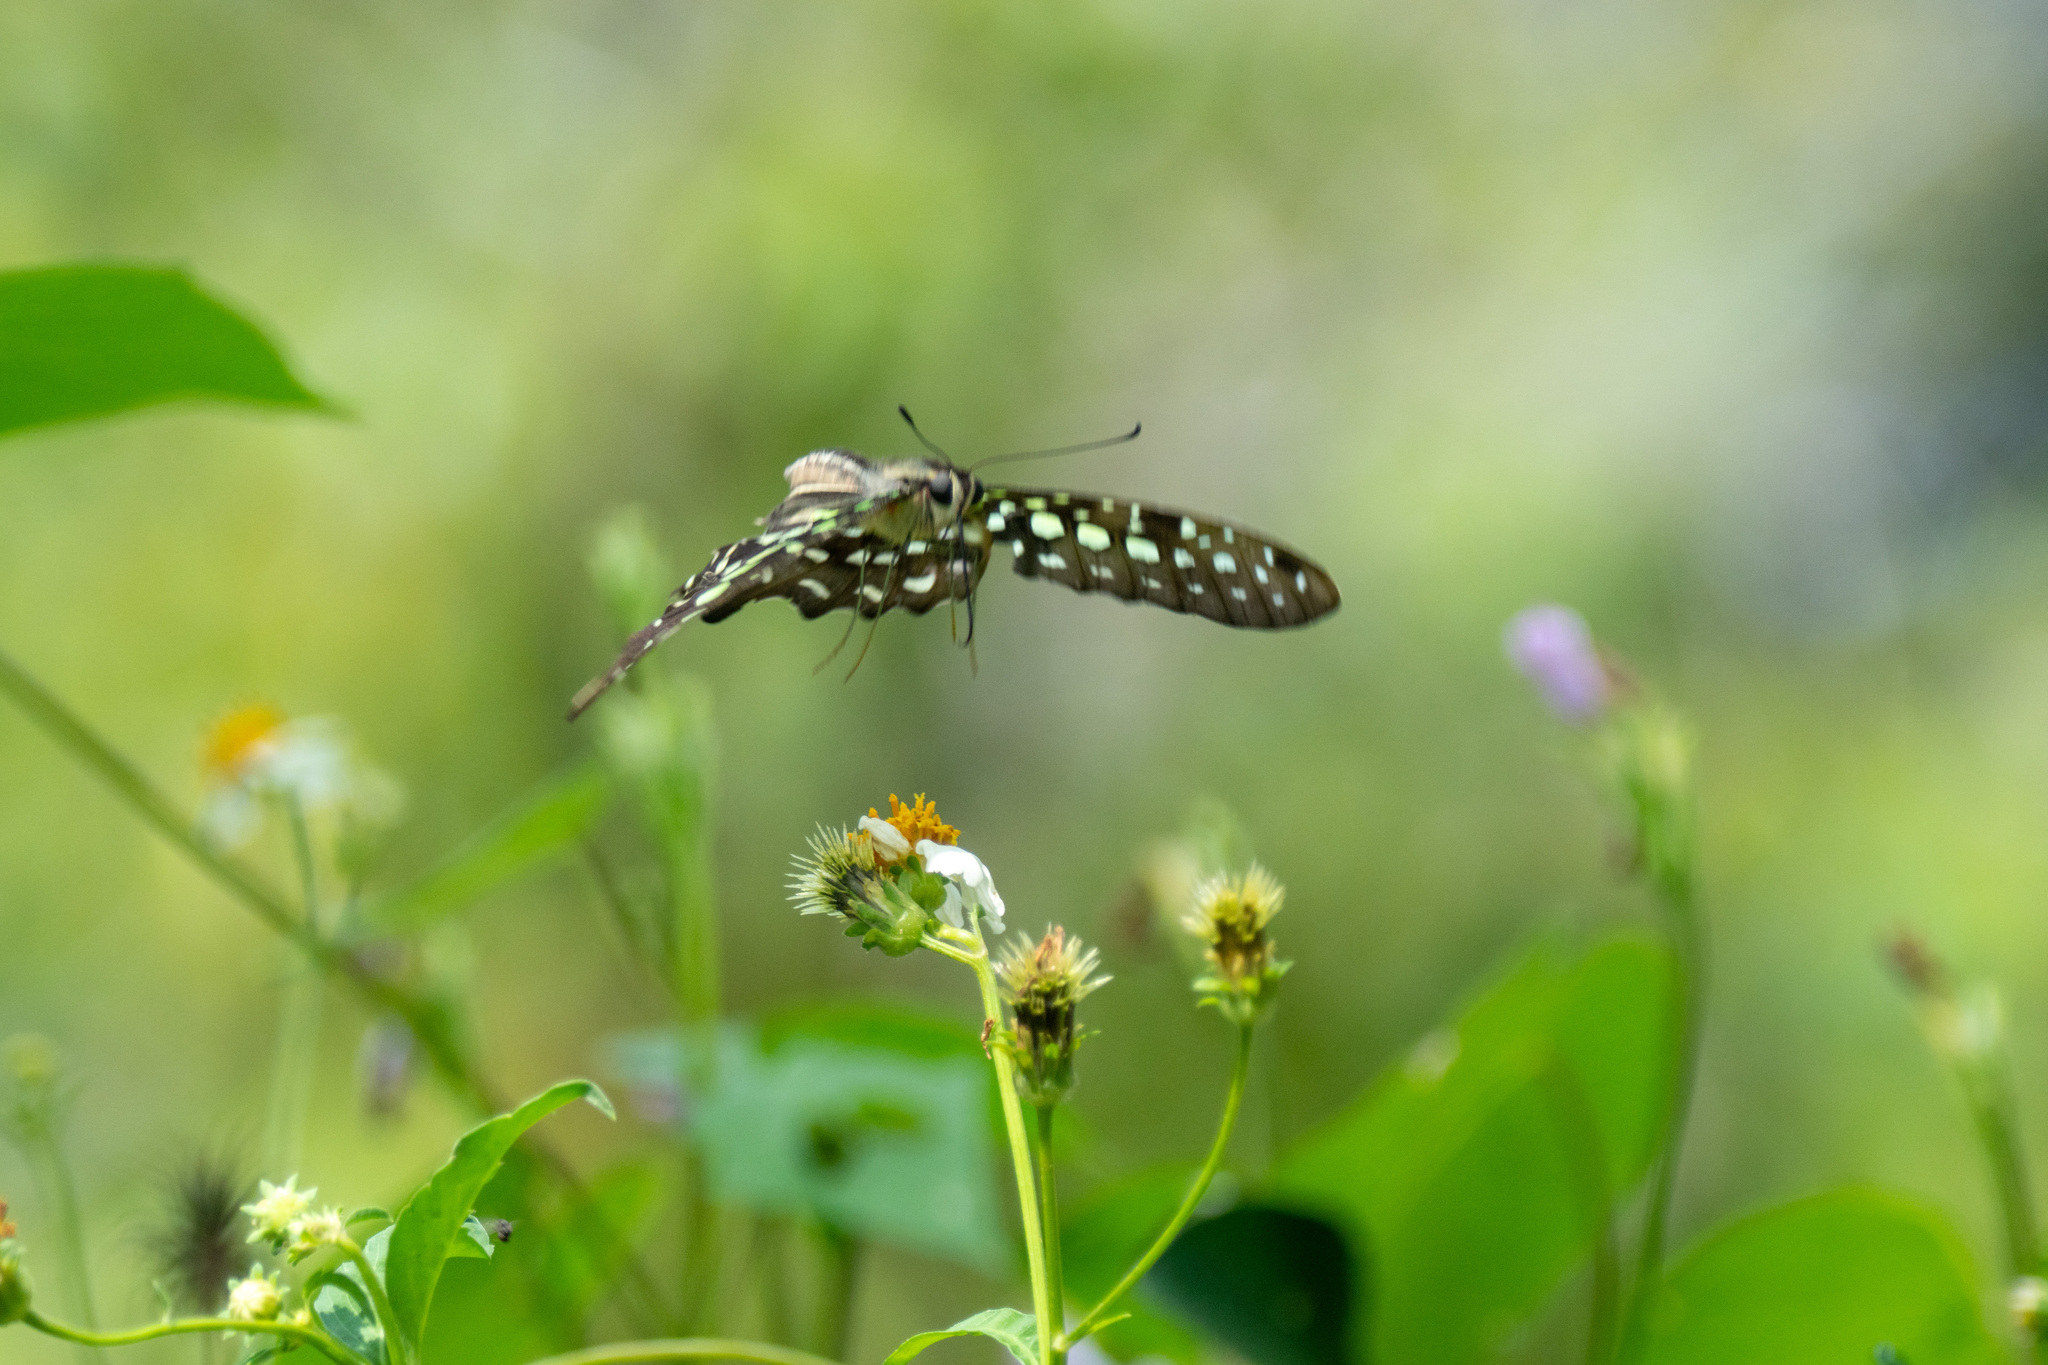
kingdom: Animalia
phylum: Arthropoda
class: Insecta
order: Lepidoptera
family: Papilionidae
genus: Graphium
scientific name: Graphium agamemnon
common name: Tailed jay
